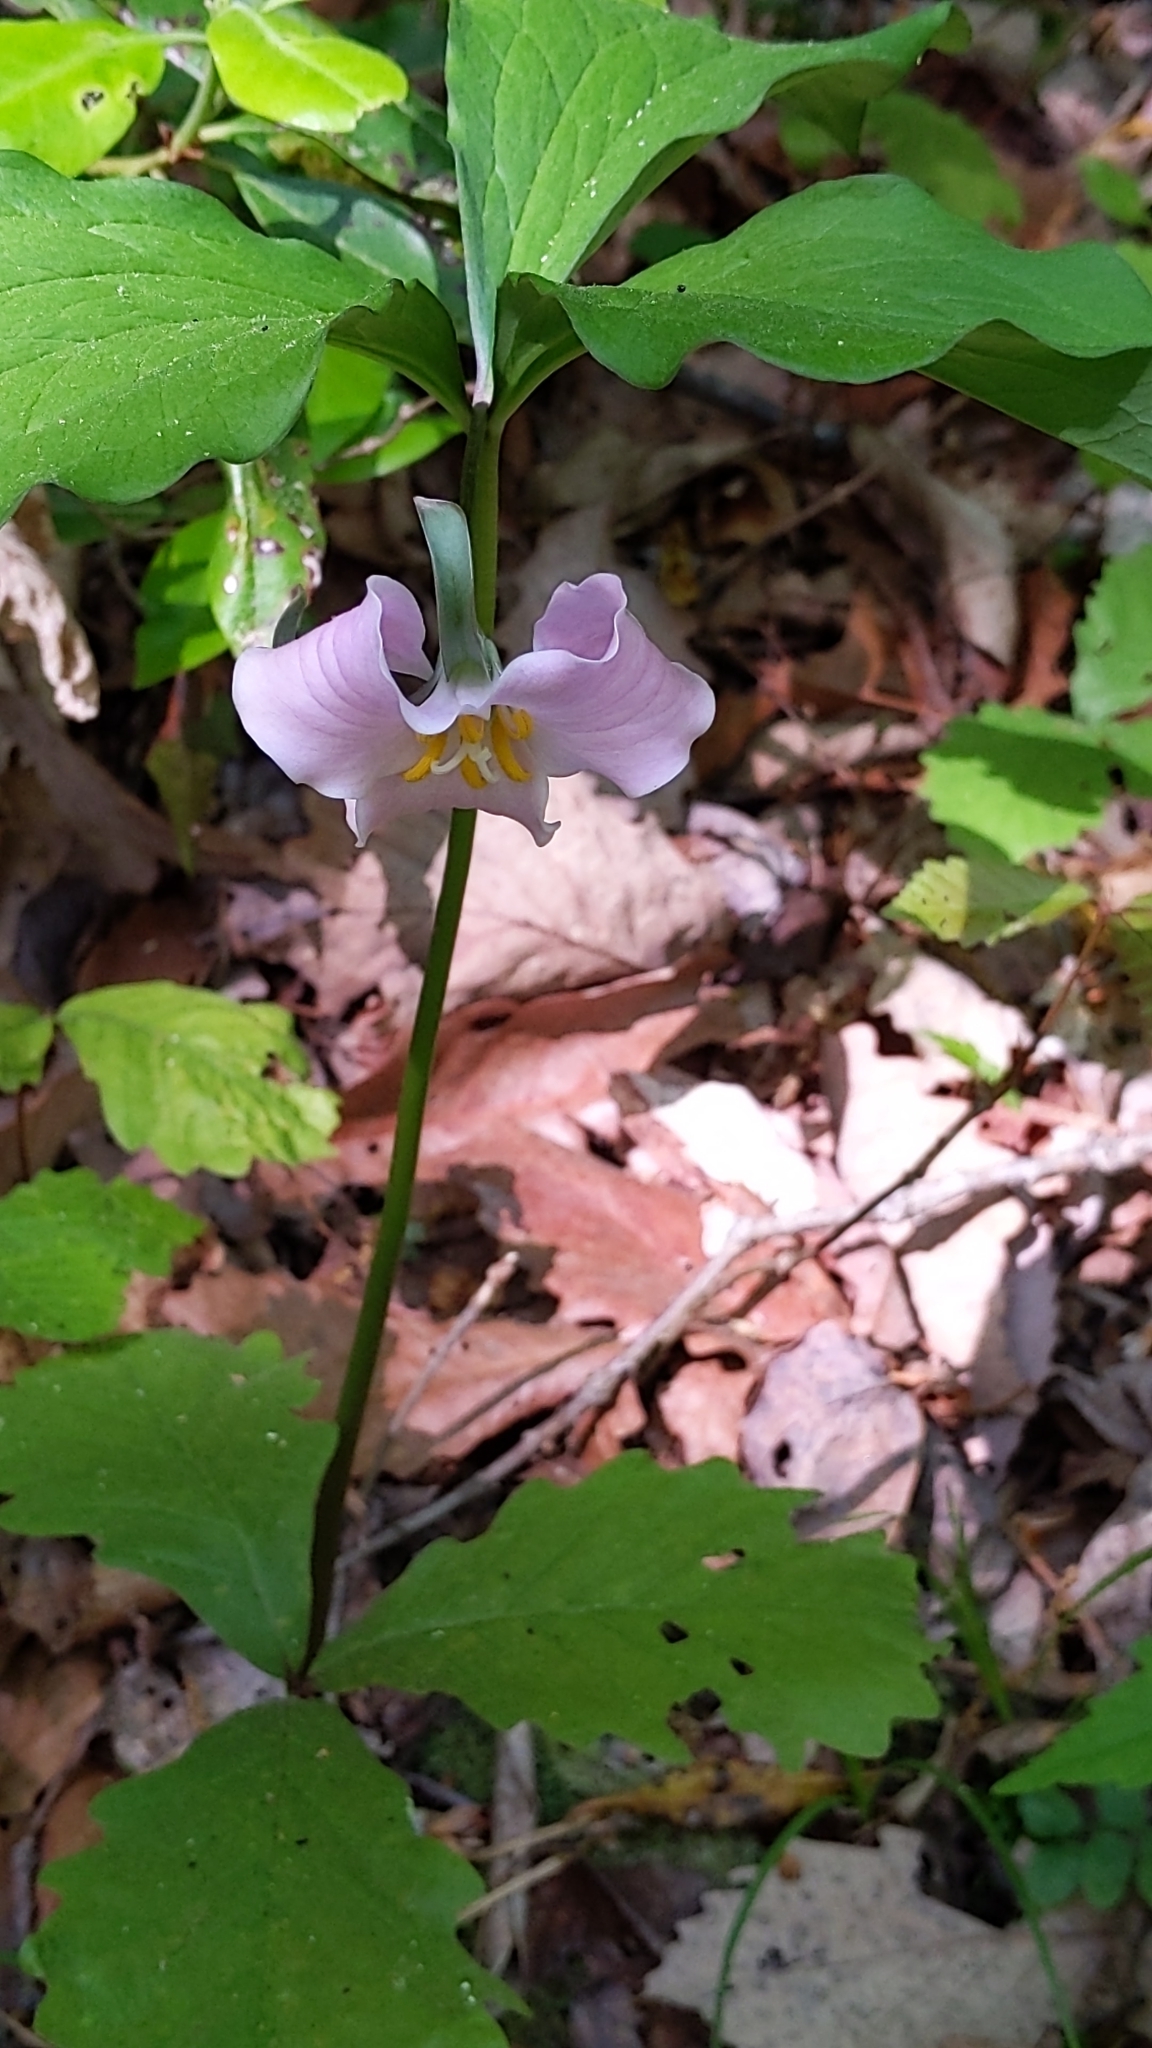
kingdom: Plantae
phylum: Tracheophyta
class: Liliopsida
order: Liliales
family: Melanthiaceae
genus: Trillium
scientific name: Trillium catesbaei
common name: Bashful trillium
